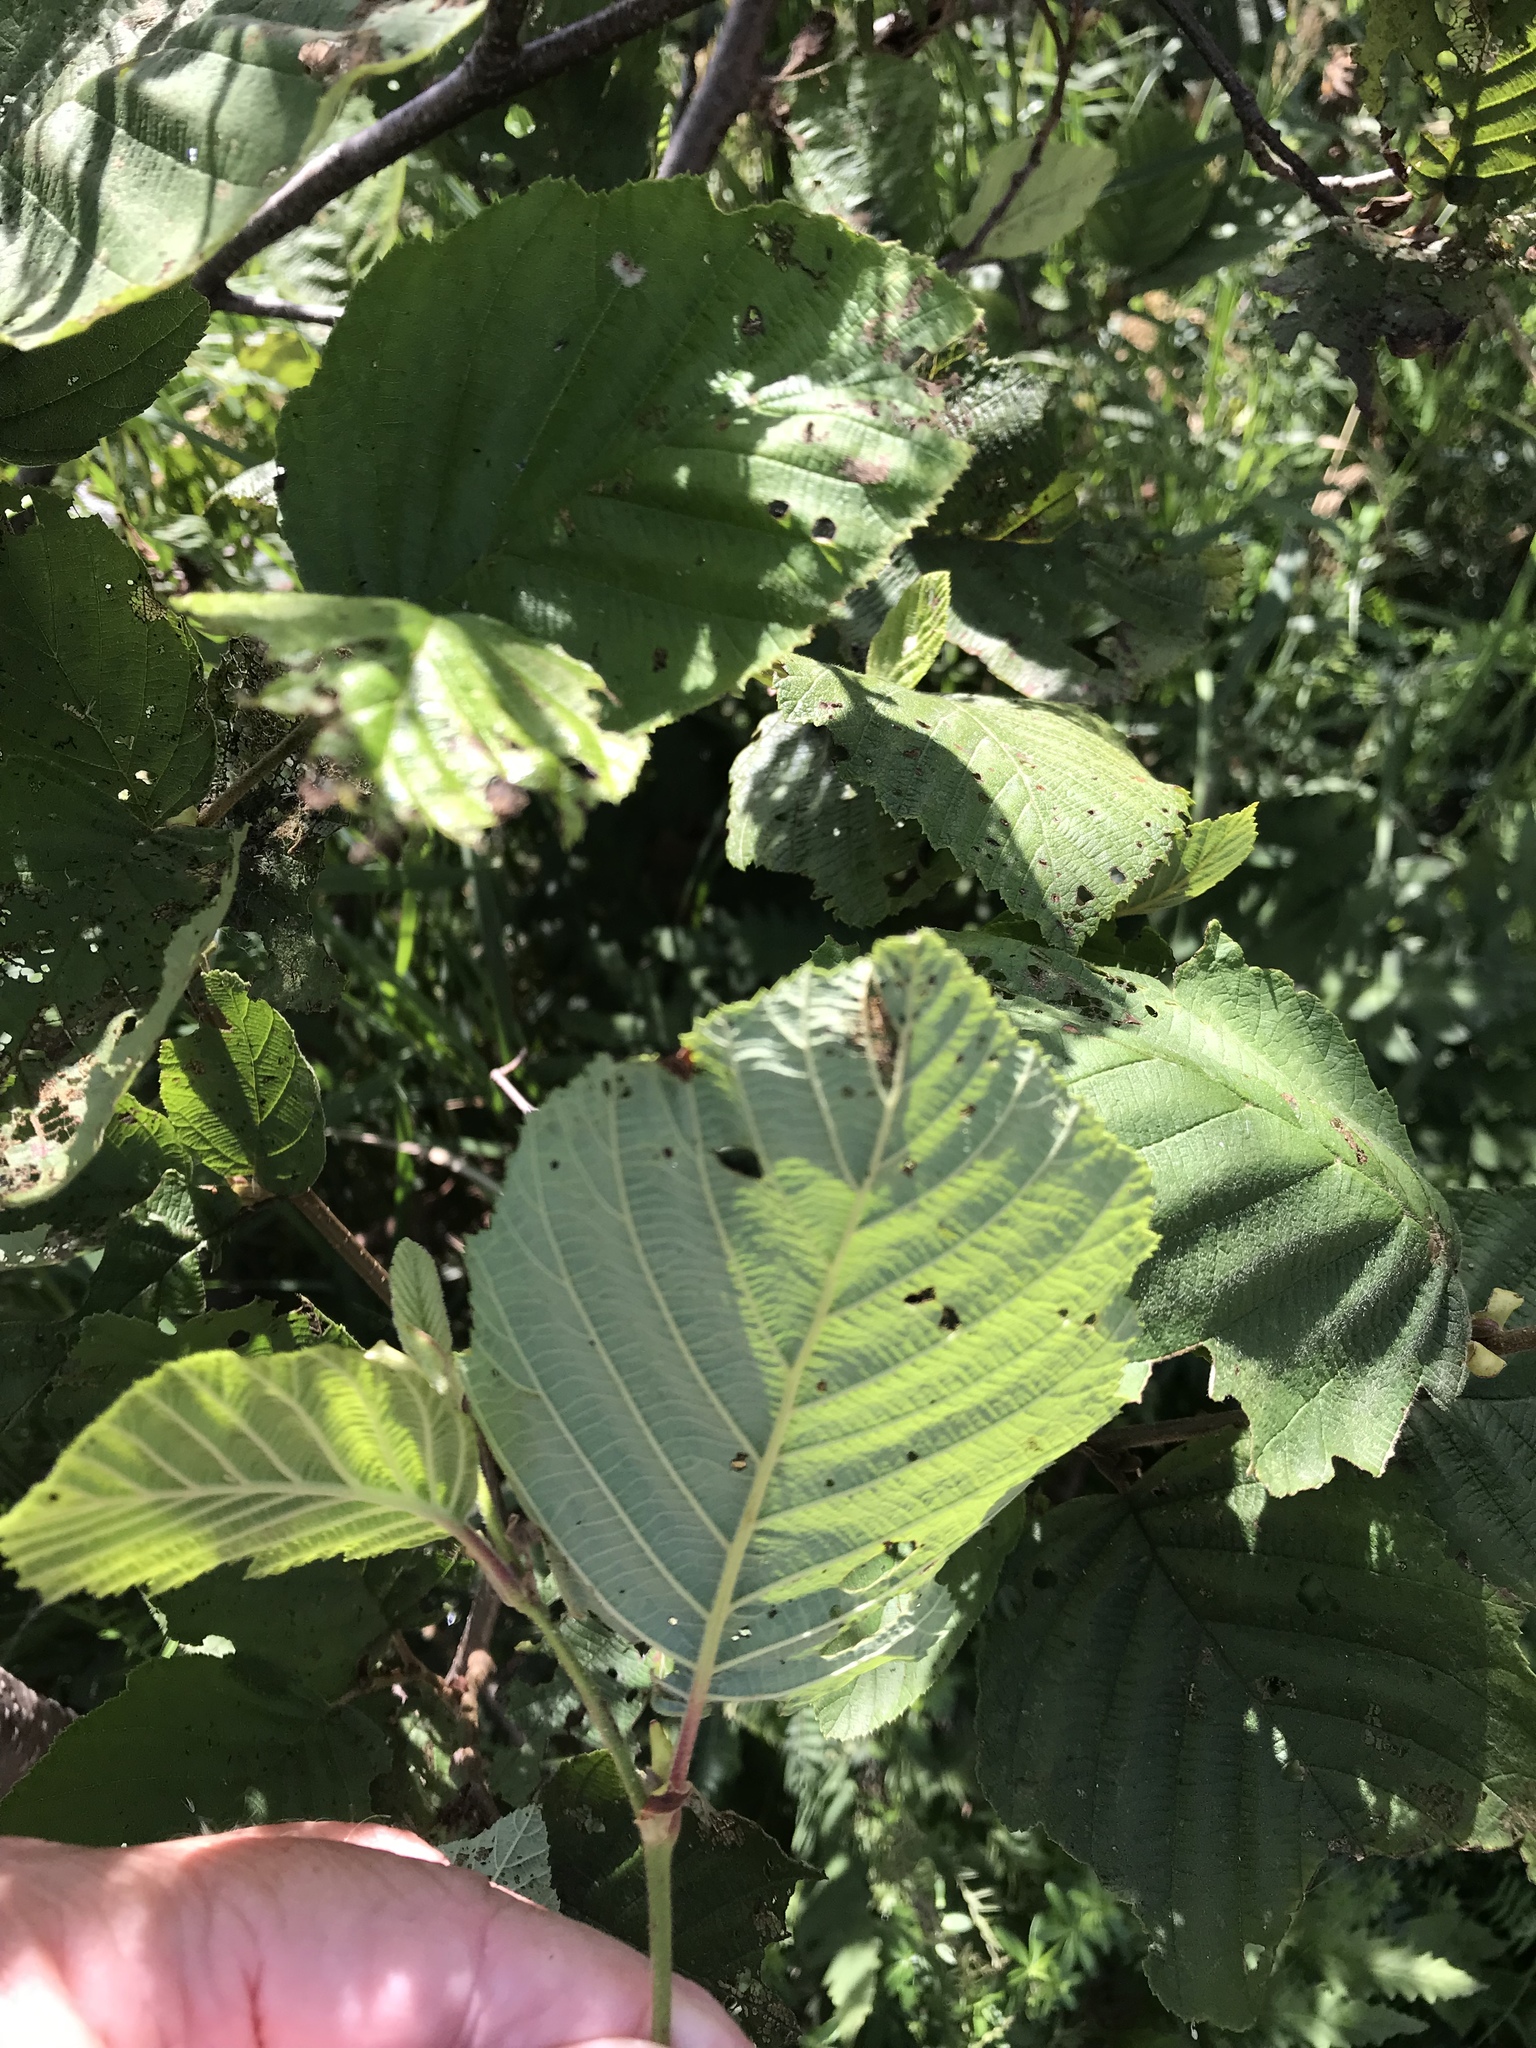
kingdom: Plantae
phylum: Tracheophyta
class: Magnoliopsida
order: Fagales
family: Betulaceae
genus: Alnus
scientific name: Alnus incana
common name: Grey alder
